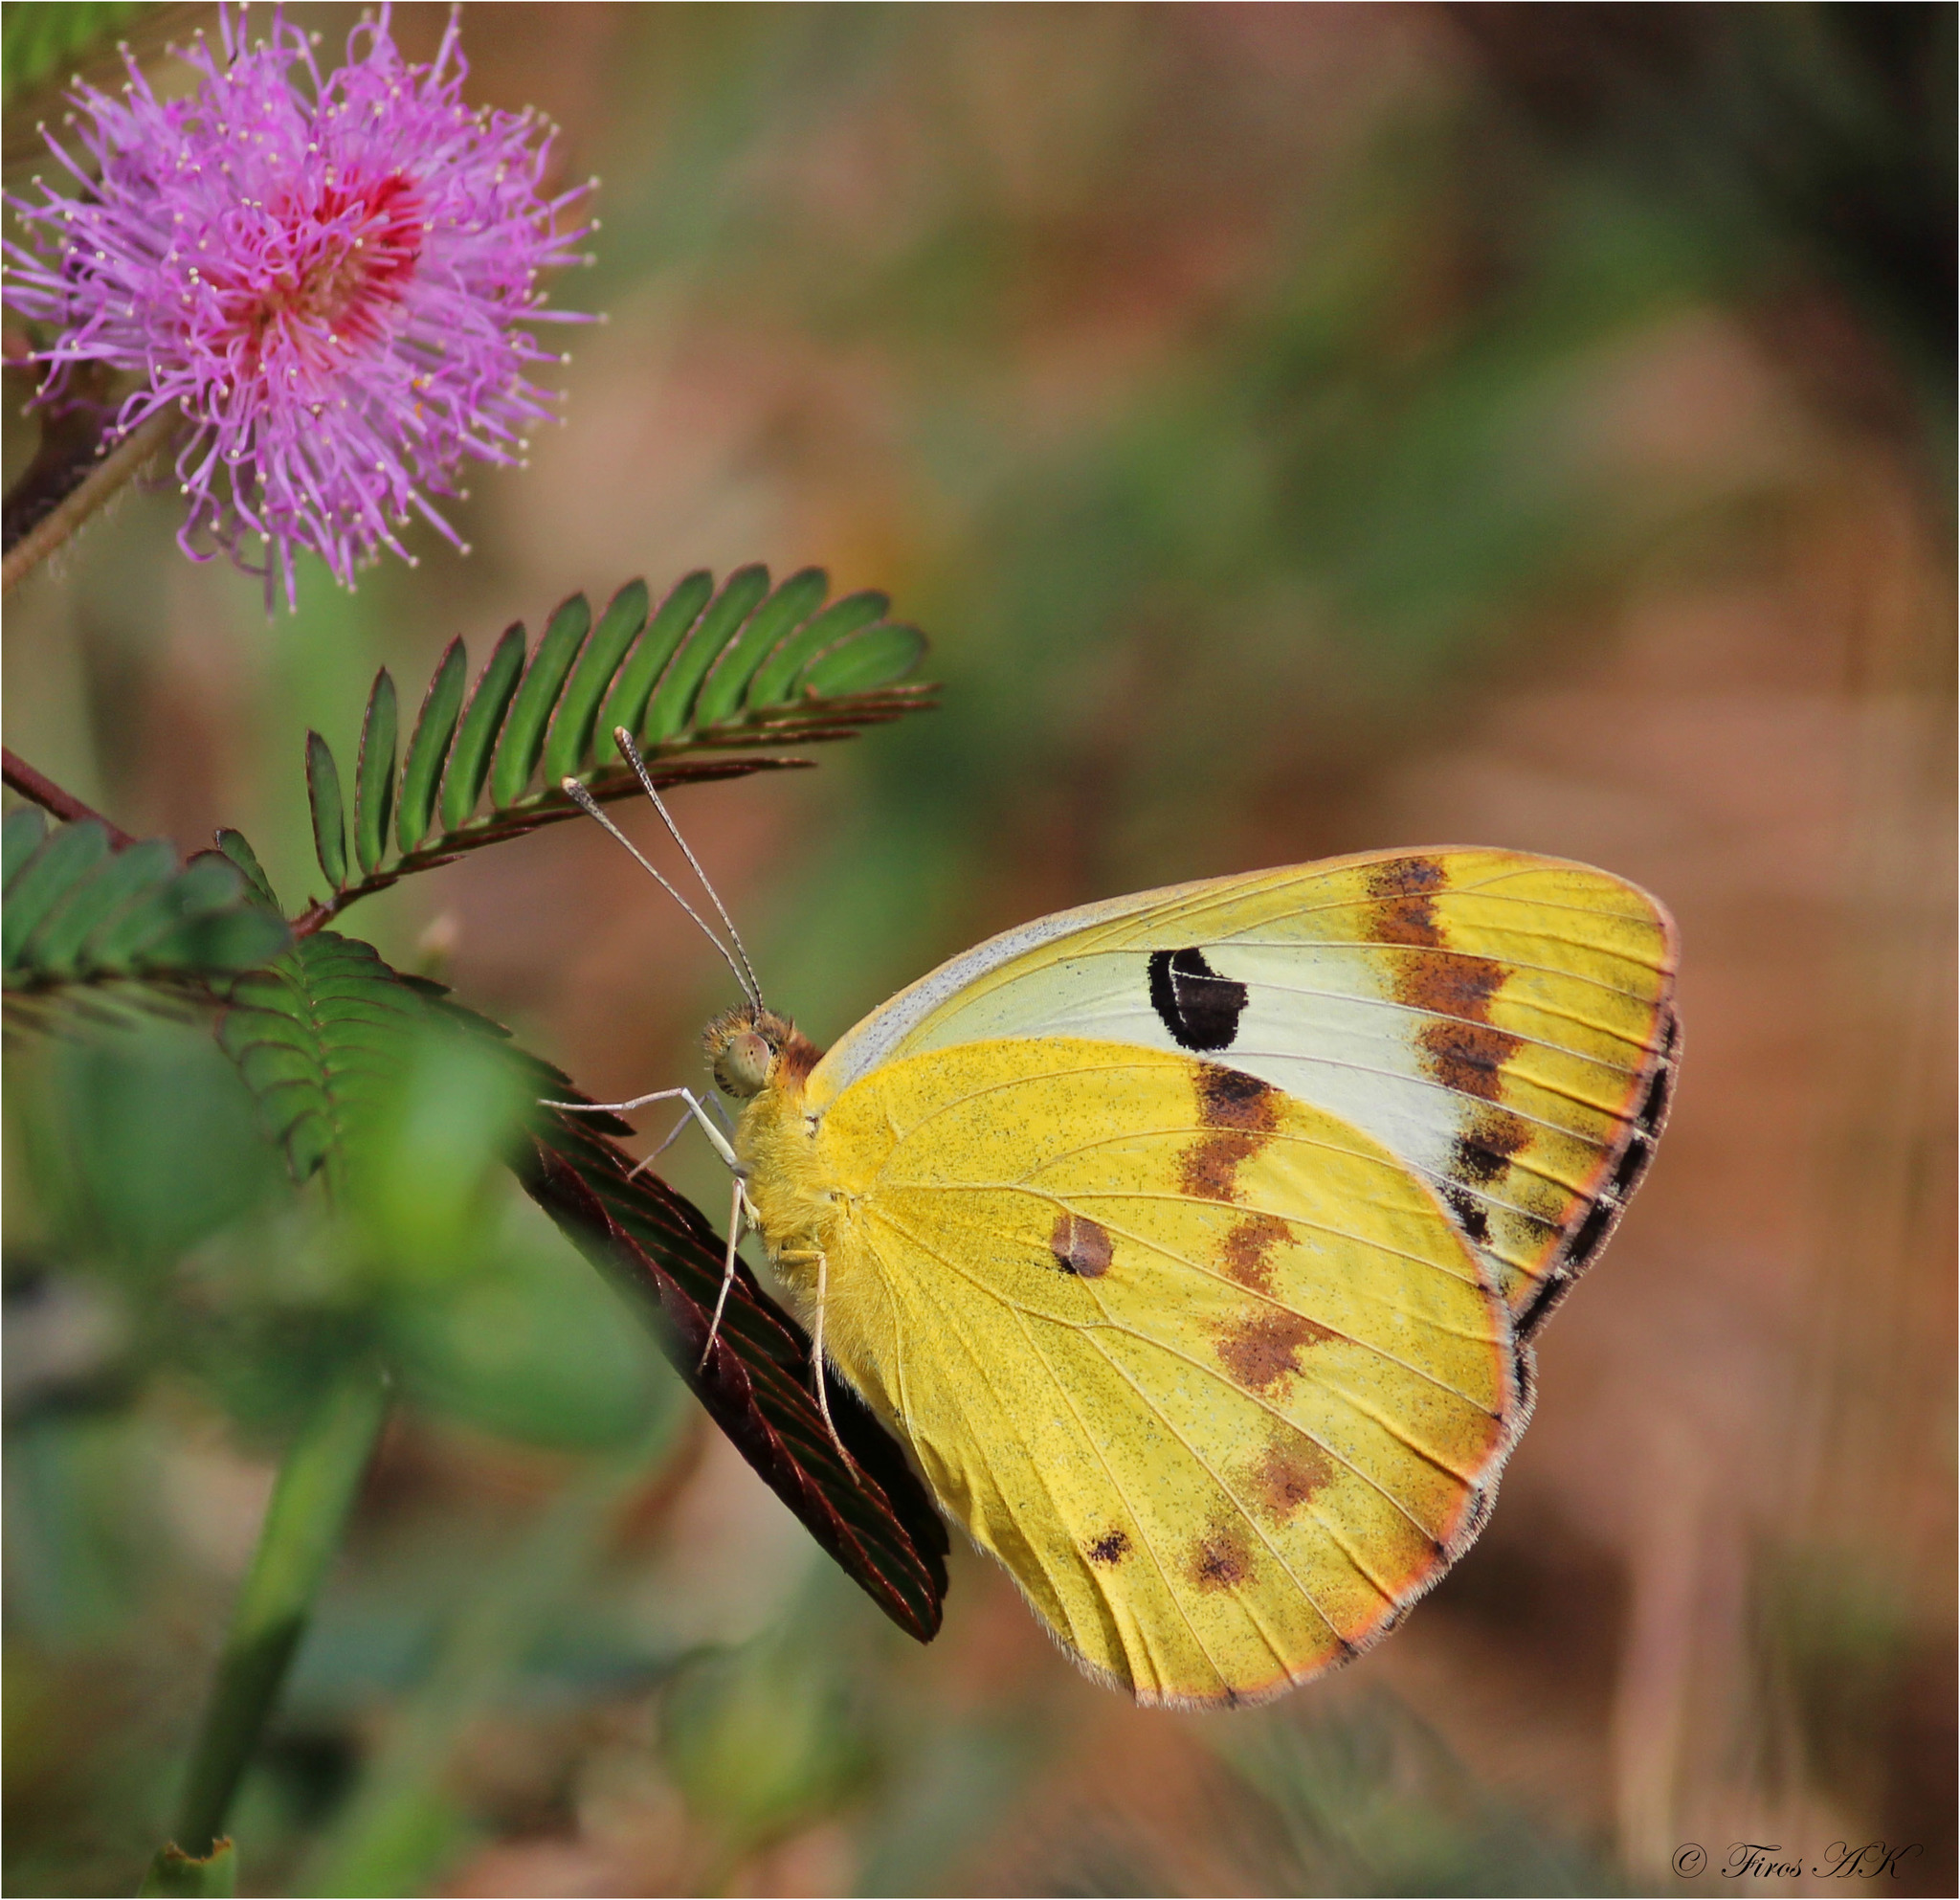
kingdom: Animalia
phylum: Arthropoda
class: Insecta
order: Lepidoptera
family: Pieridae
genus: Colotis
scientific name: Colotis fausta
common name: Large salmon arab
